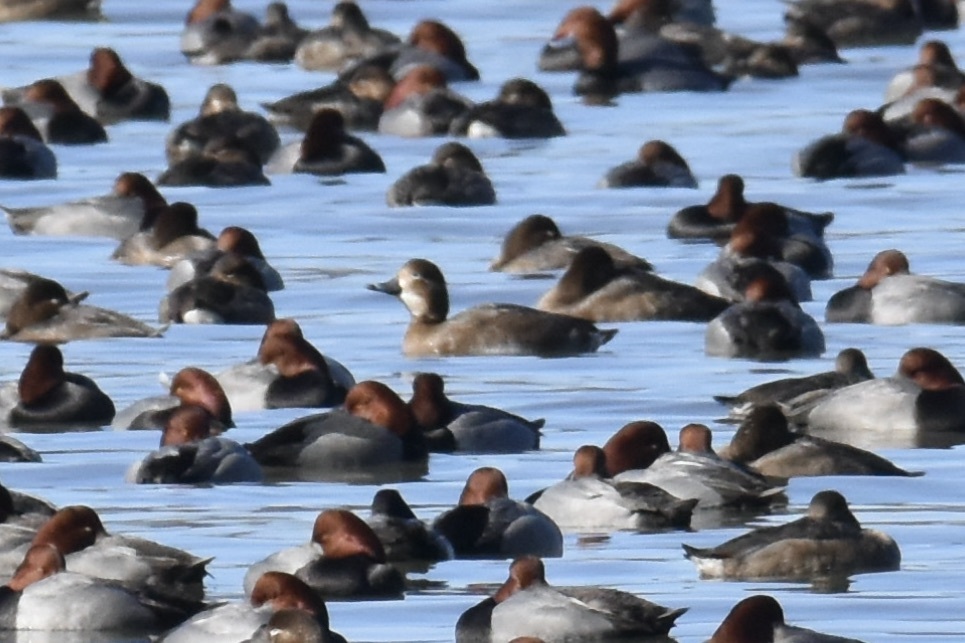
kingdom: Animalia
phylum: Chordata
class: Aves
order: Anseriformes
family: Anatidae
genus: Aythya
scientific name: Aythya americana
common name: Redhead
